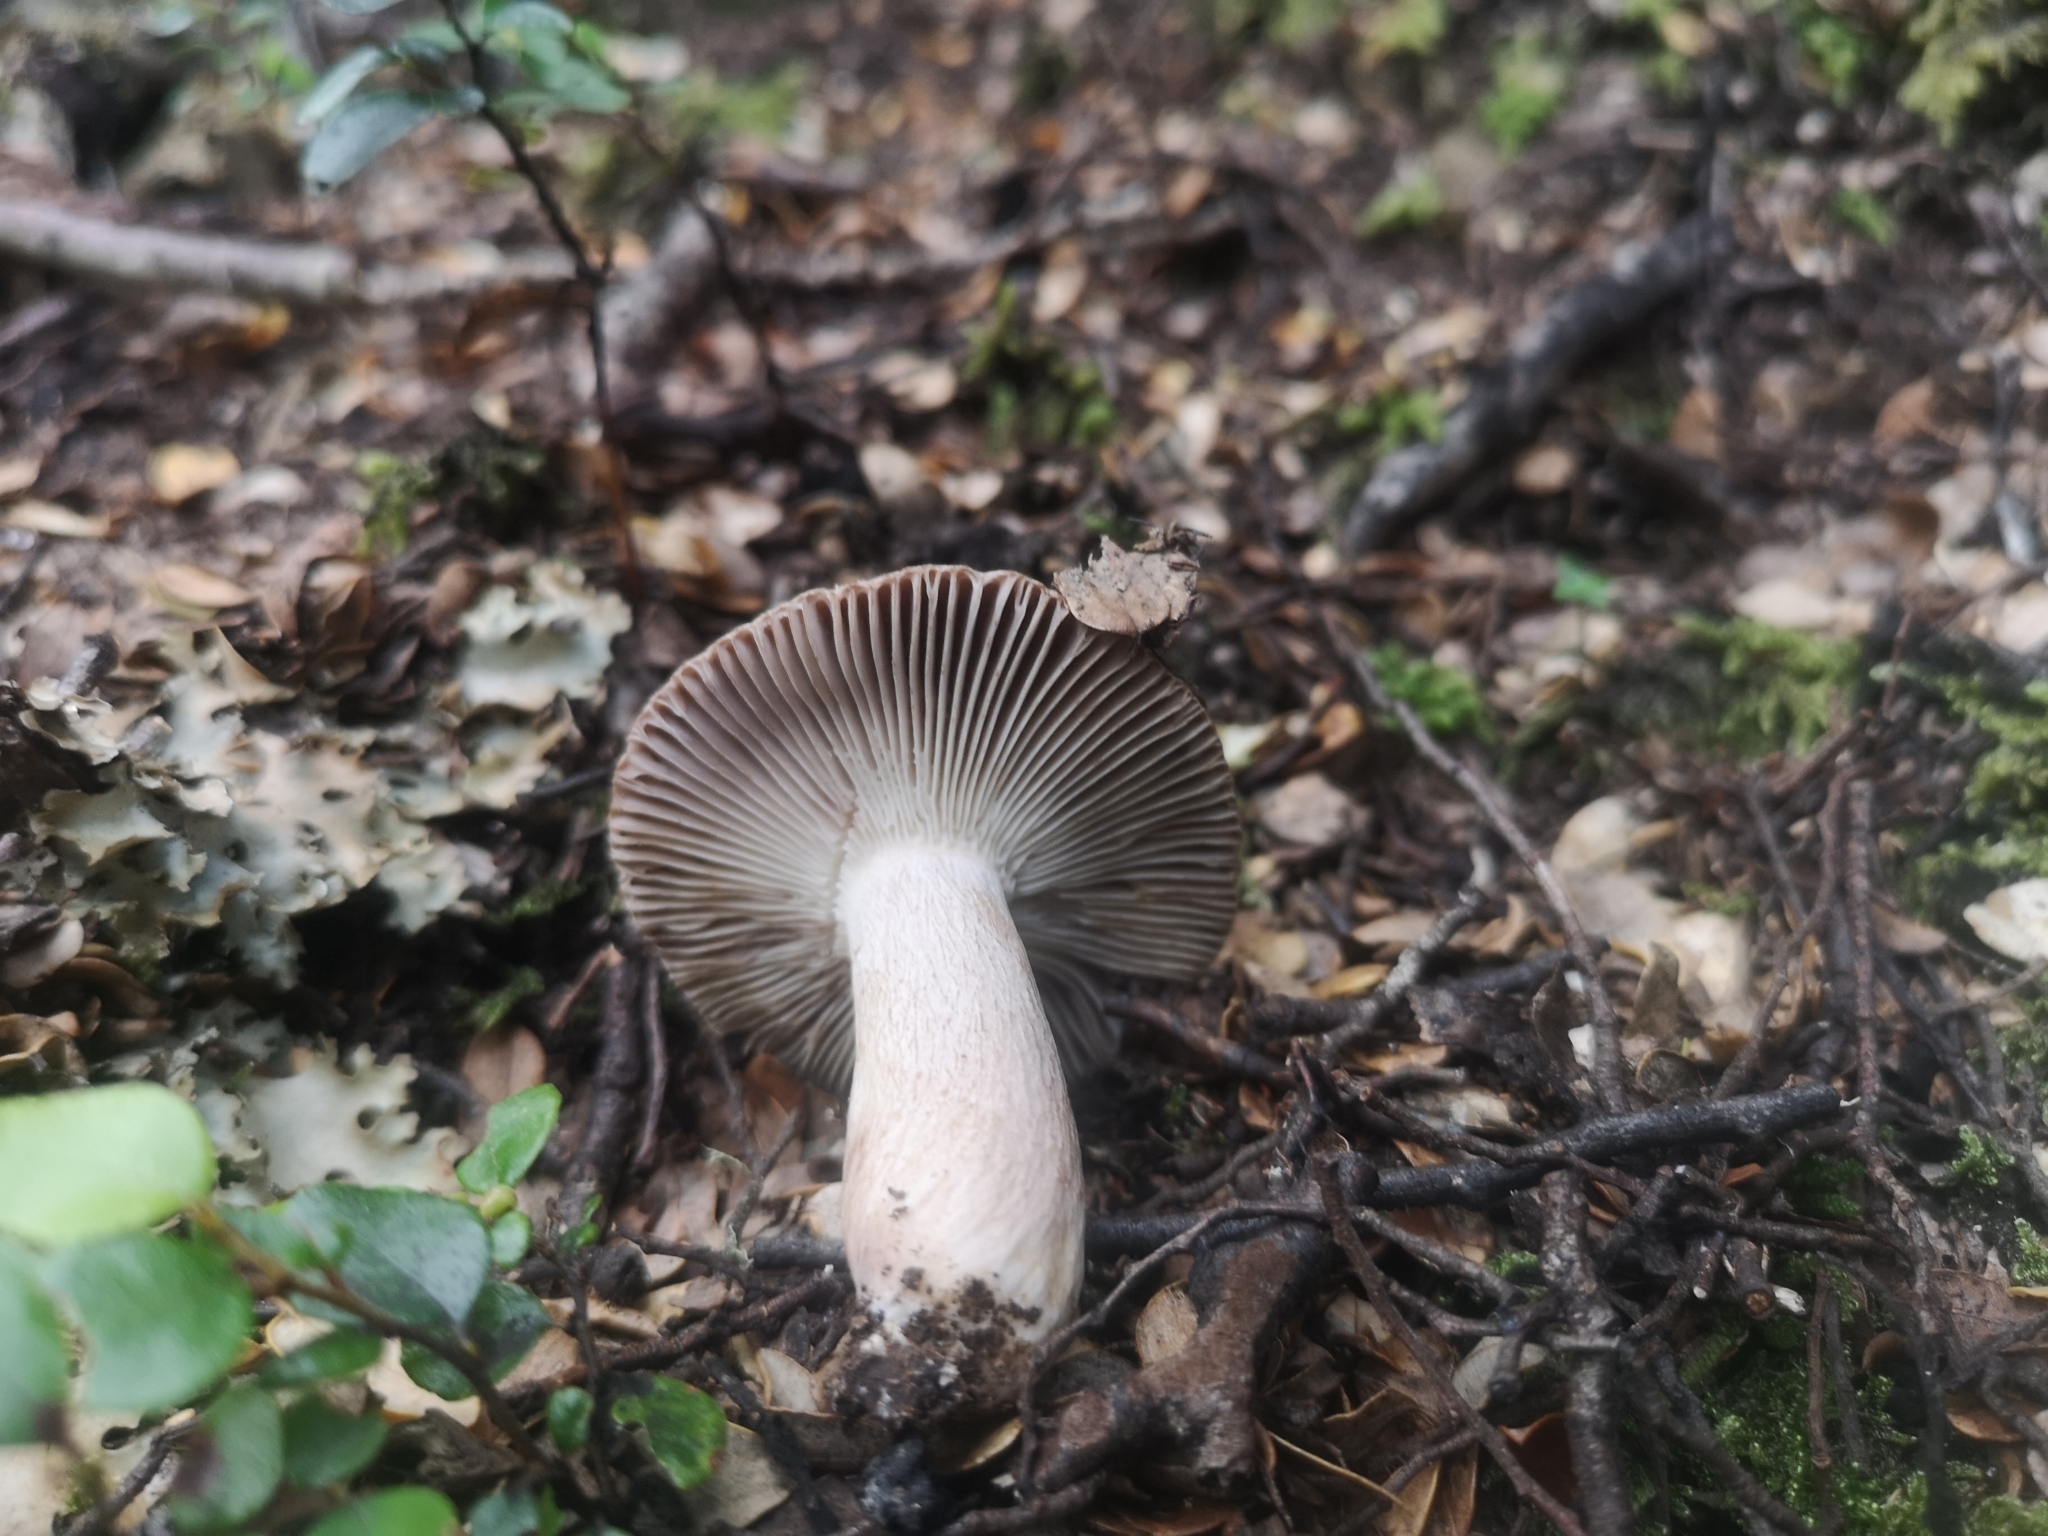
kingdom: Fungi
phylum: Basidiomycota
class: Agaricomycetes
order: Russulales
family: Russulaceae
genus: Russula
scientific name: Russula griseobrunnea
